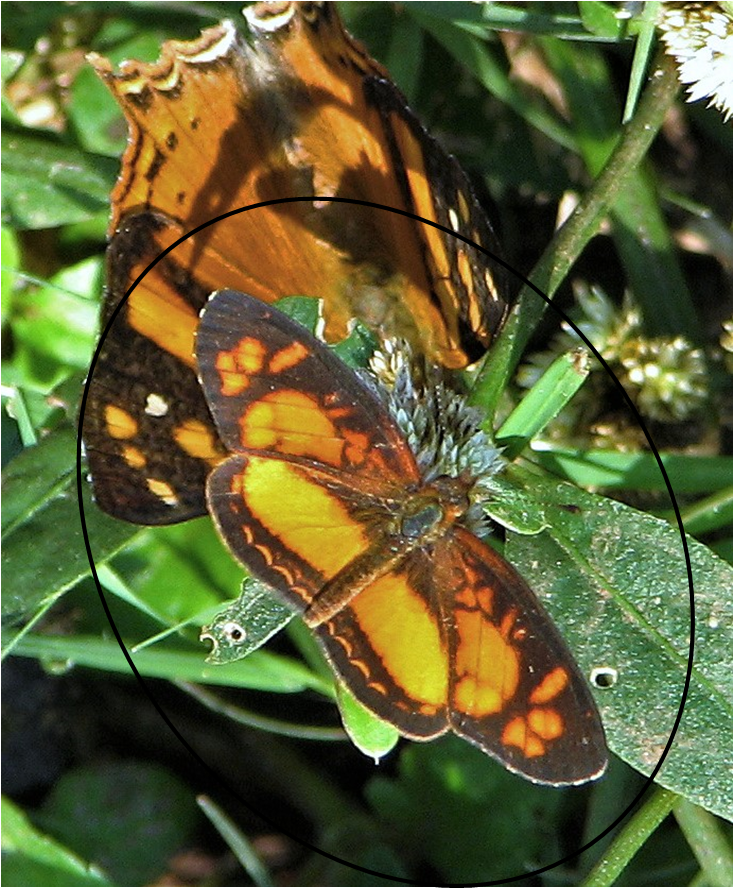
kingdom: Animalia
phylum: Arthropoda
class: Insecta
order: Lepidoptera
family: Nymphalidae
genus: Ortilia
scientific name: Ortilia dicoma
